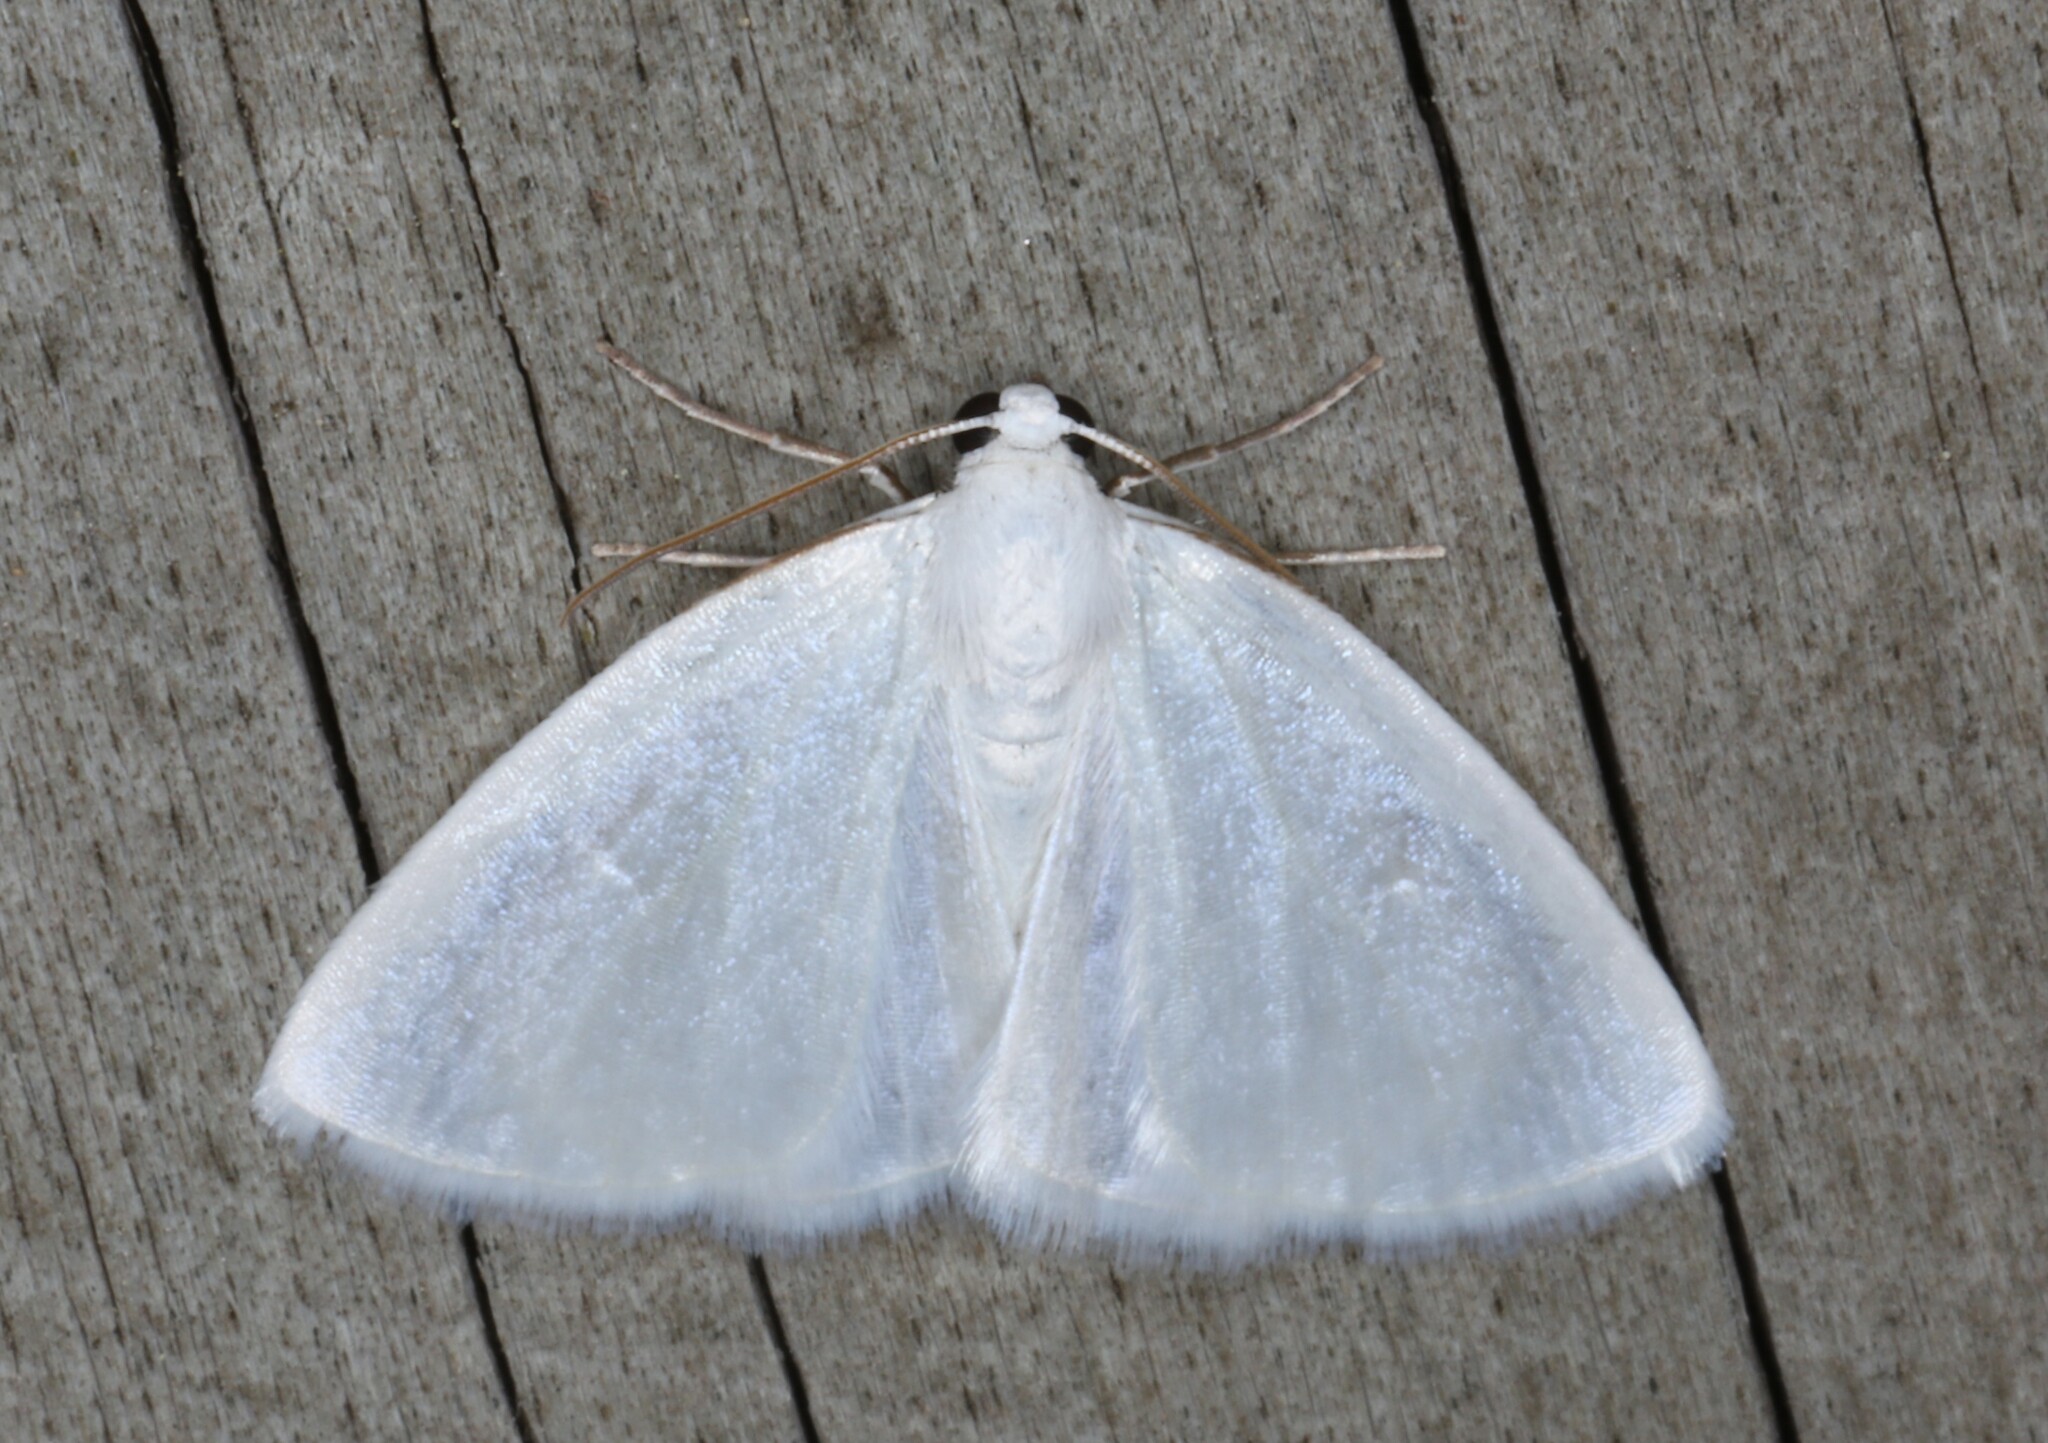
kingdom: Animalia
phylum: Arthropoda
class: Insecta
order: Lepidoptera
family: Geometridae
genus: Lomographa
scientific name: Lomographa vestaliata
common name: White spring moth
